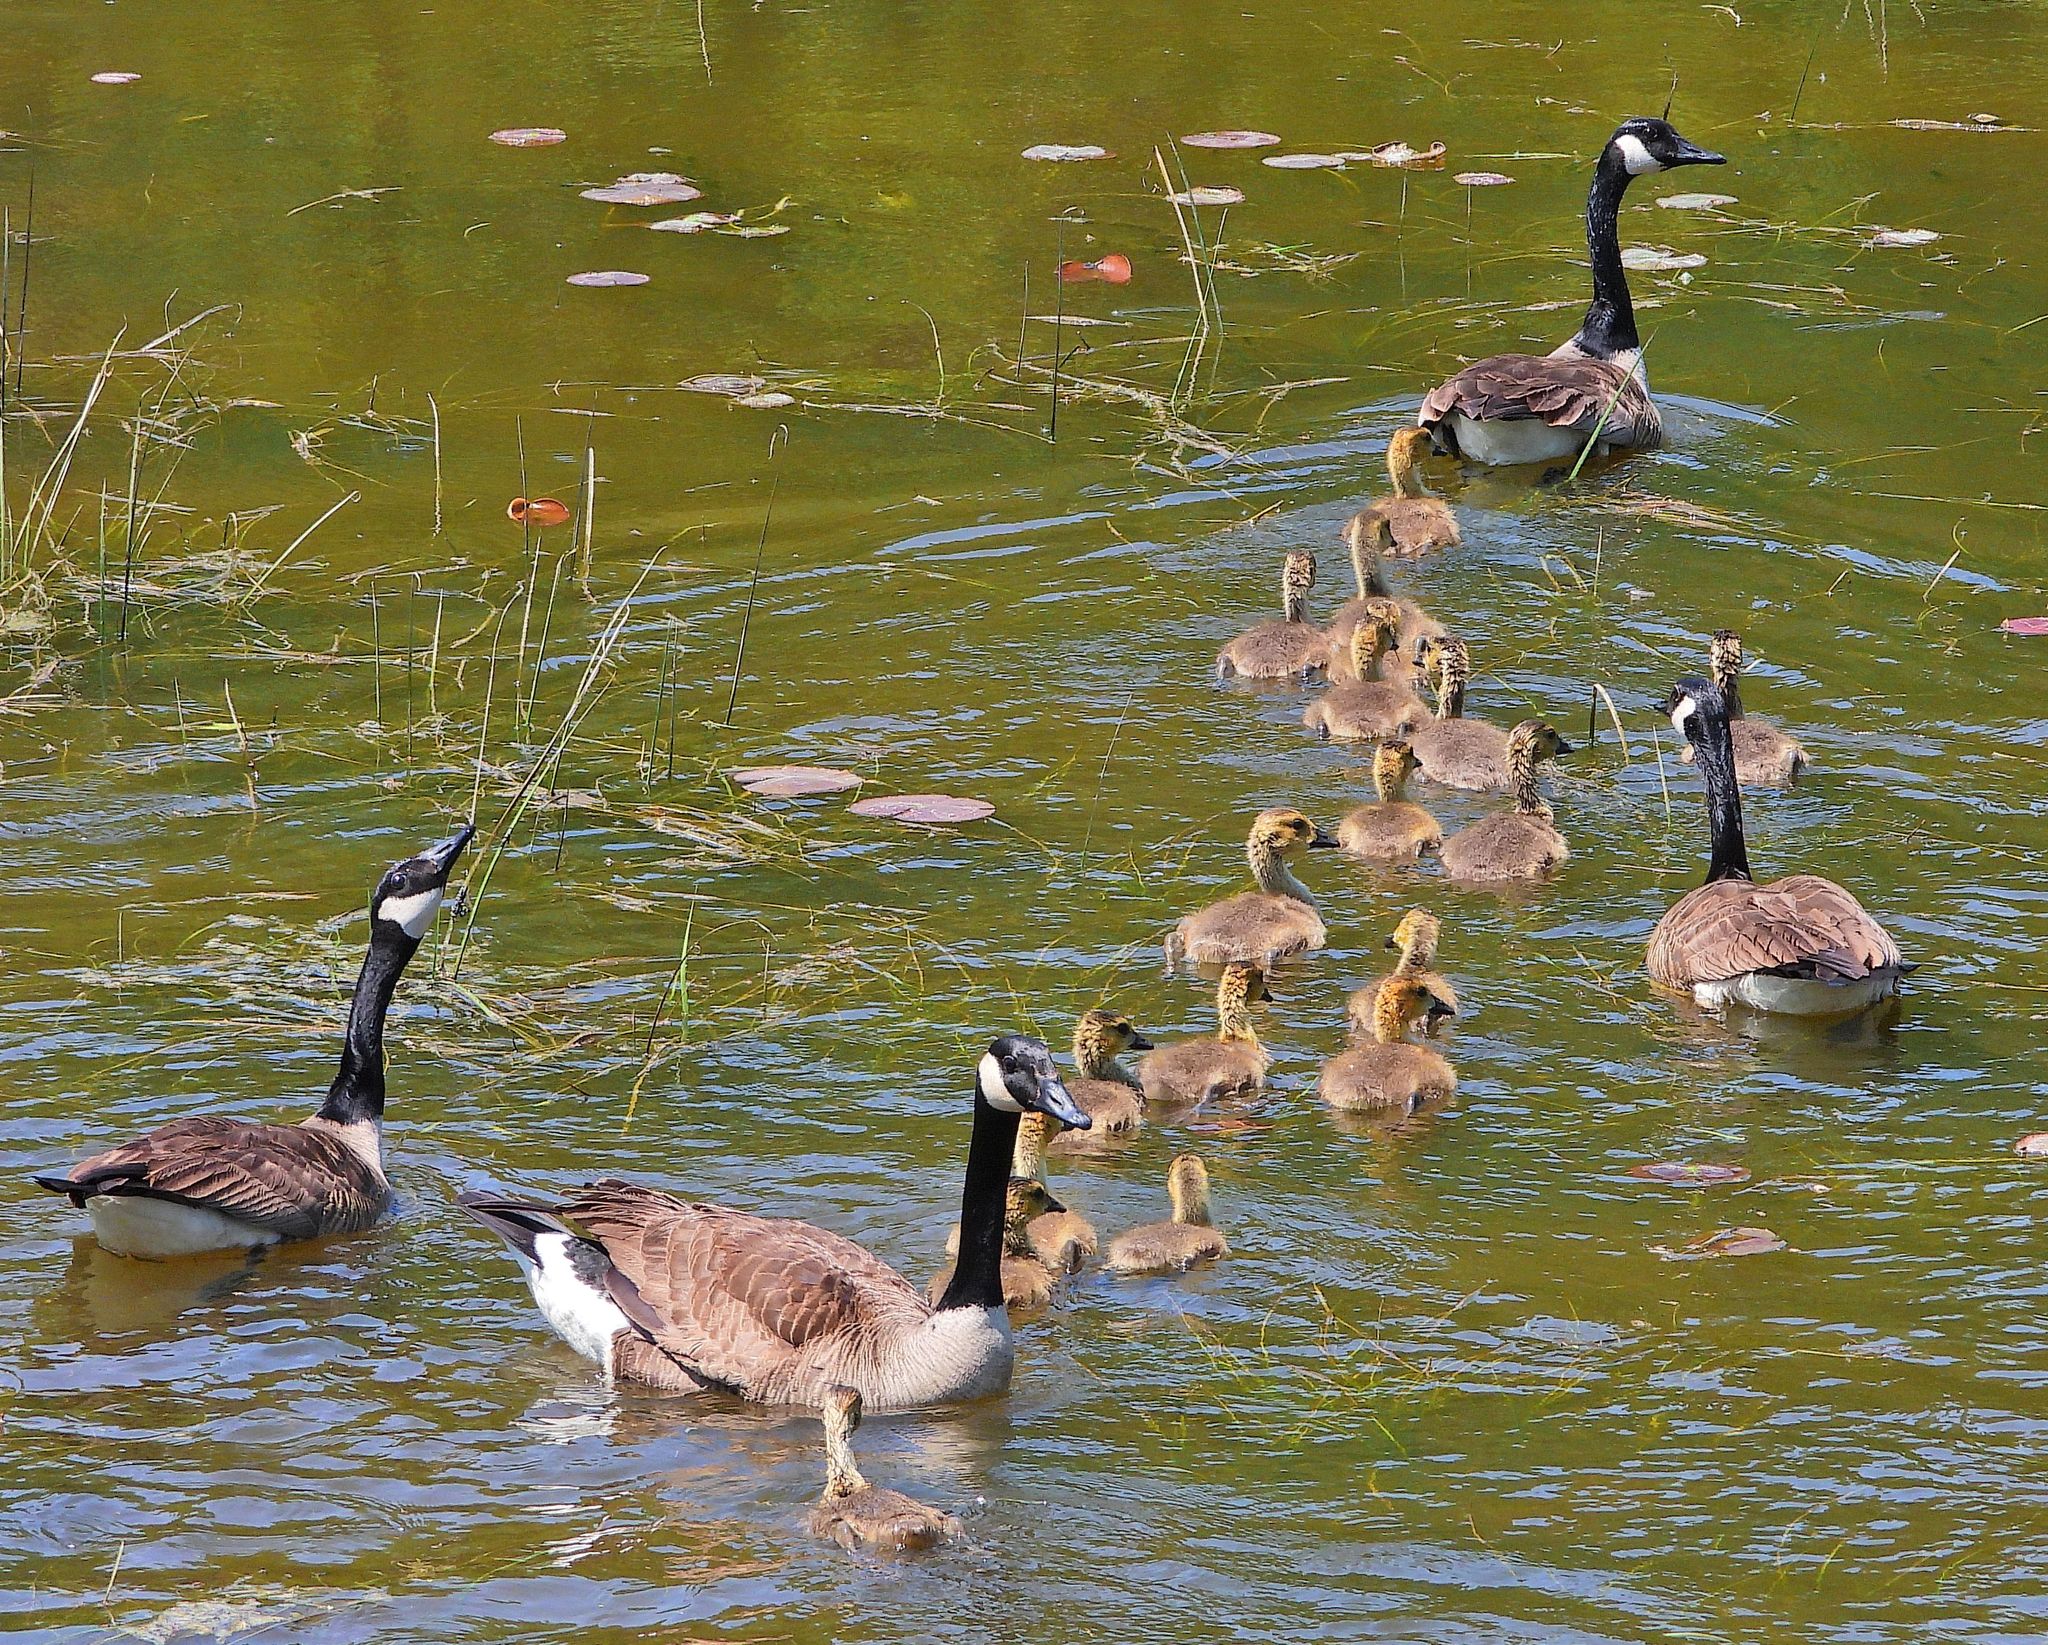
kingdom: Animalia
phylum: Chordata
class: Aves
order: Anseriformes
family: Anatidae
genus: Branta
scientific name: Branta canadensis
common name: Canada goose
